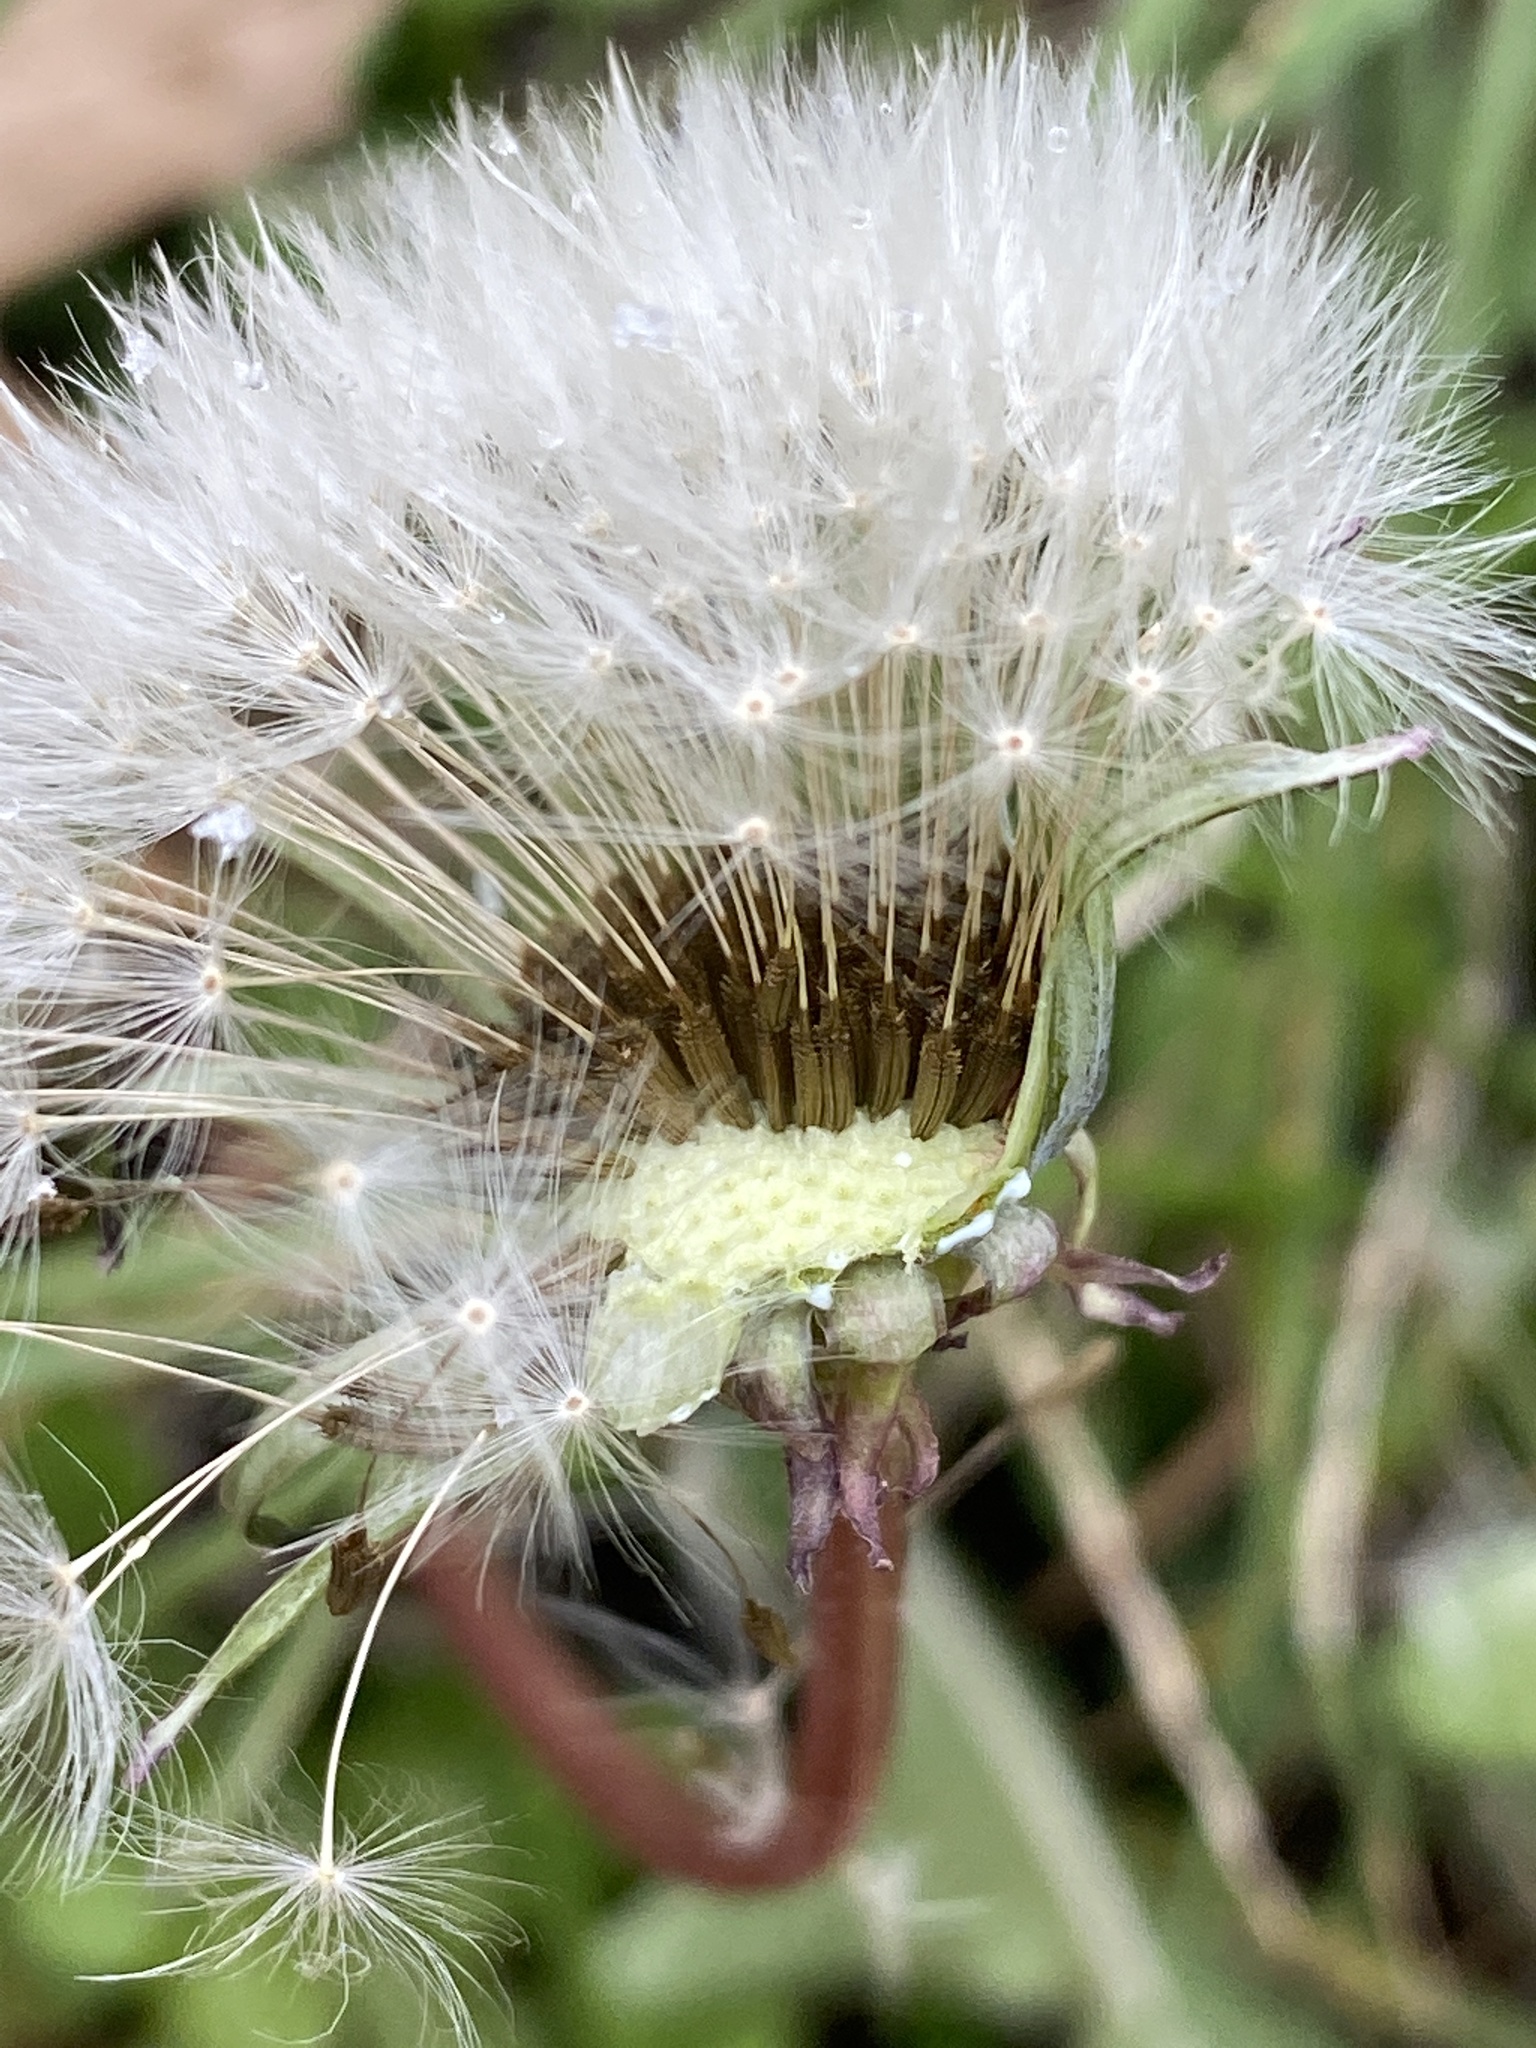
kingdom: Plantae
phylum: Tracheophyta
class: Magnoliopsida
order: Asterales
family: Asteraceae
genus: Taraxacum
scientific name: Taraxacum officinale
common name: Common dandelion
